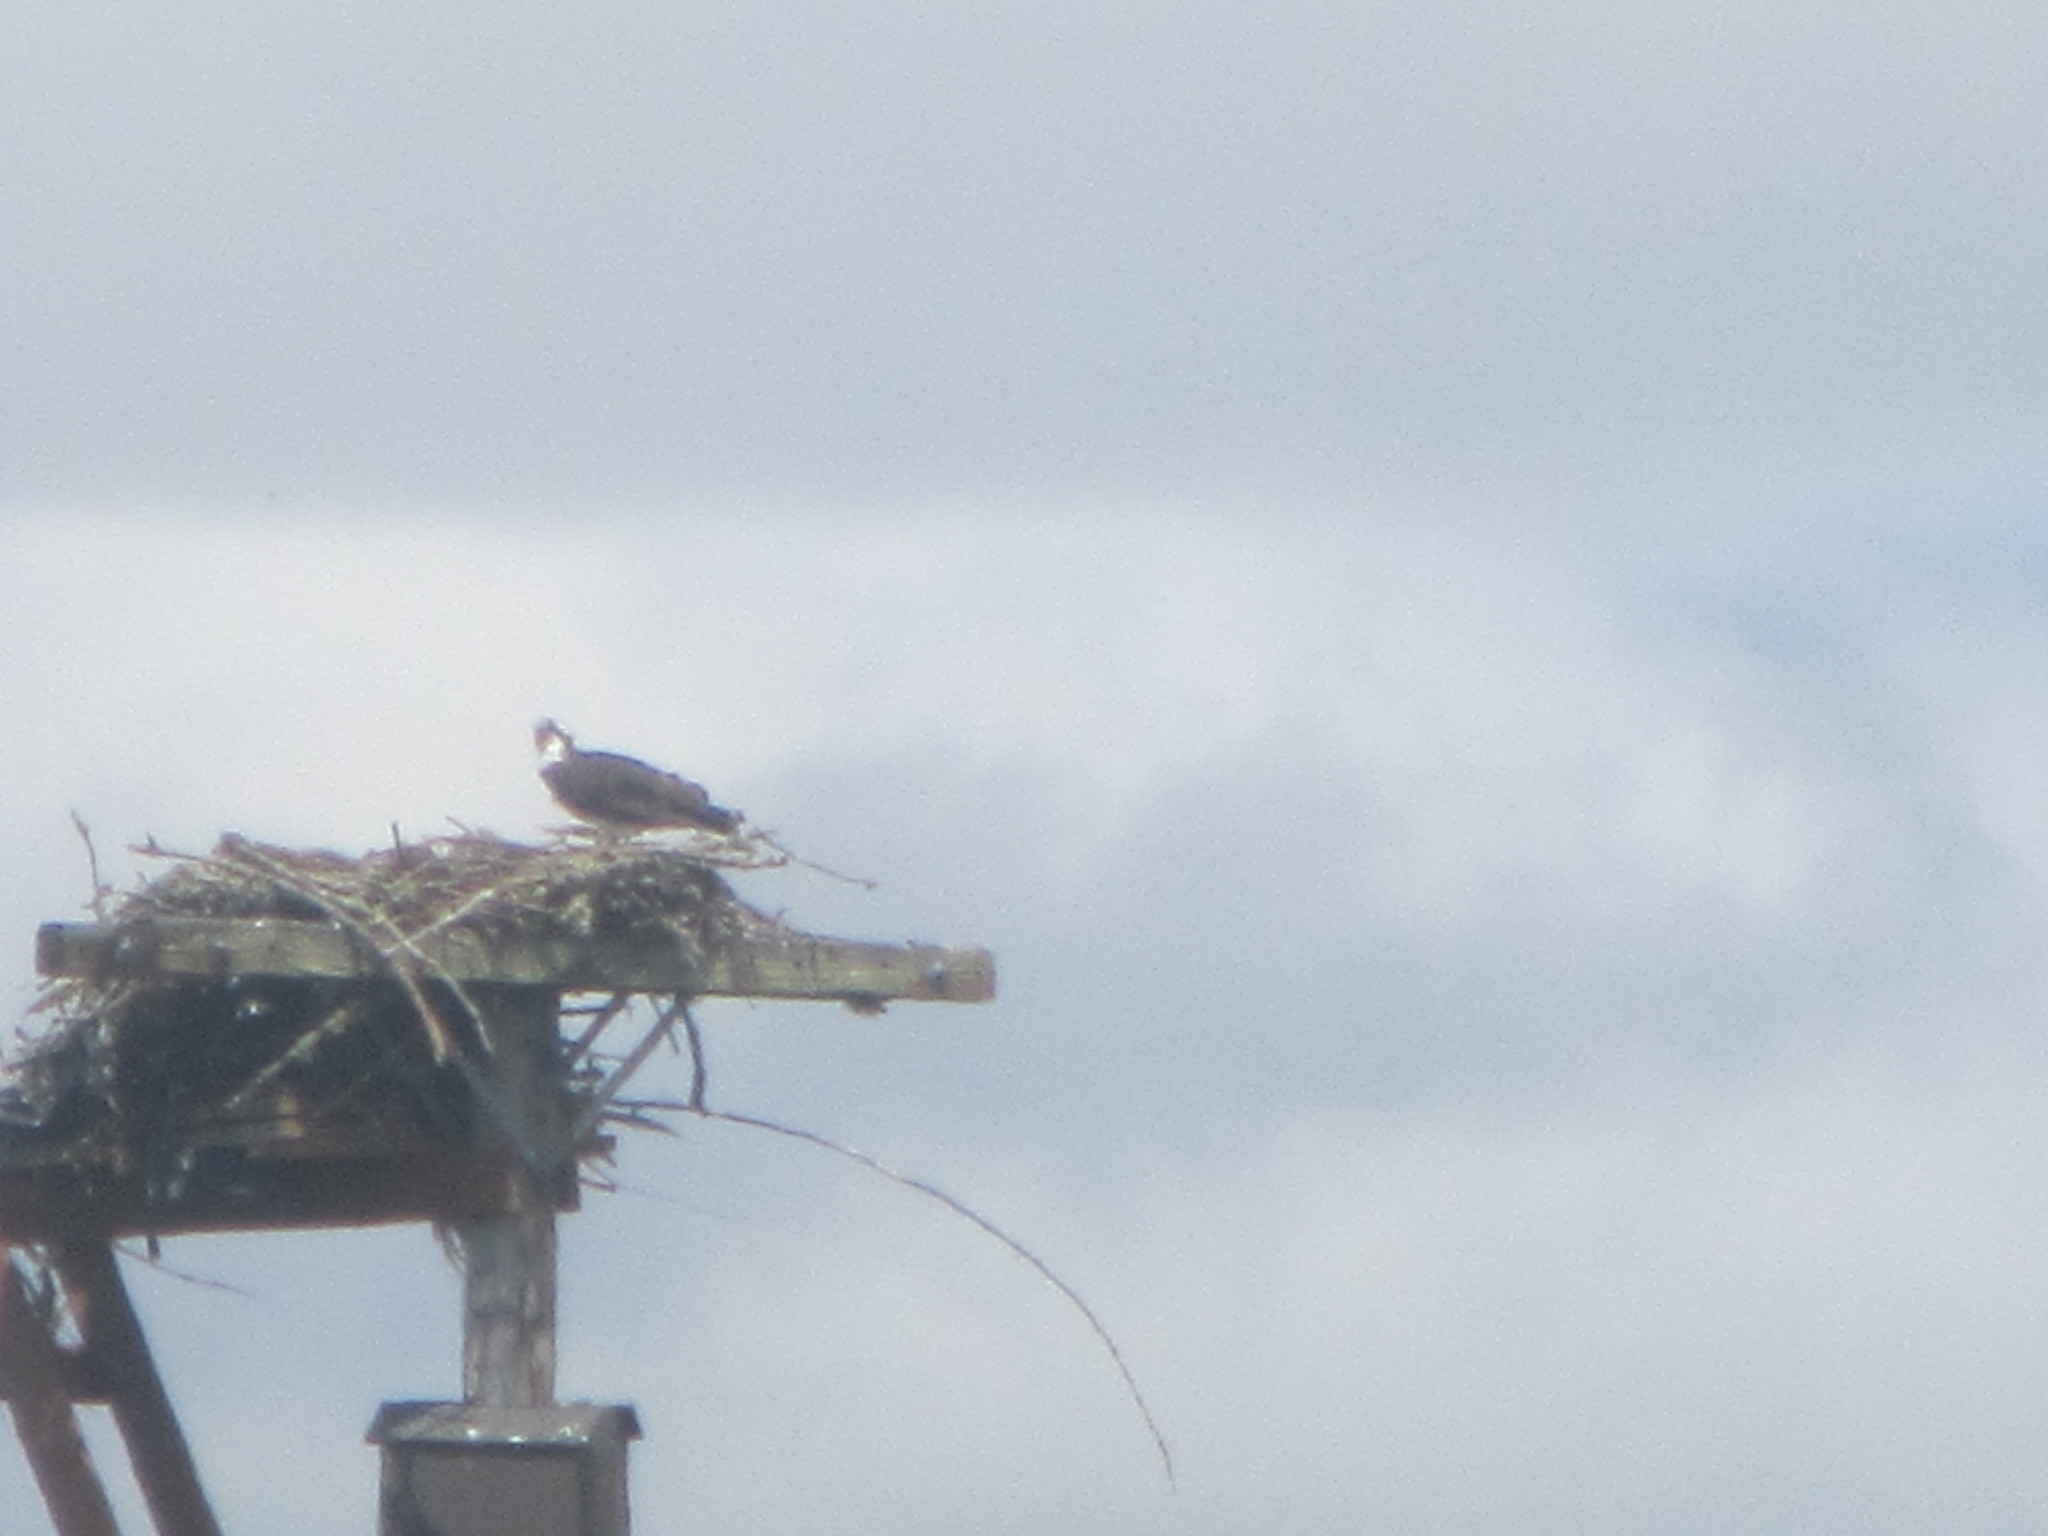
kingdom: Animalia
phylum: Chordata
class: Aves
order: Accipitriformes
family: Pandionidae
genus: Pandion
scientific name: Pandion haliaetus
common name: Osprey
